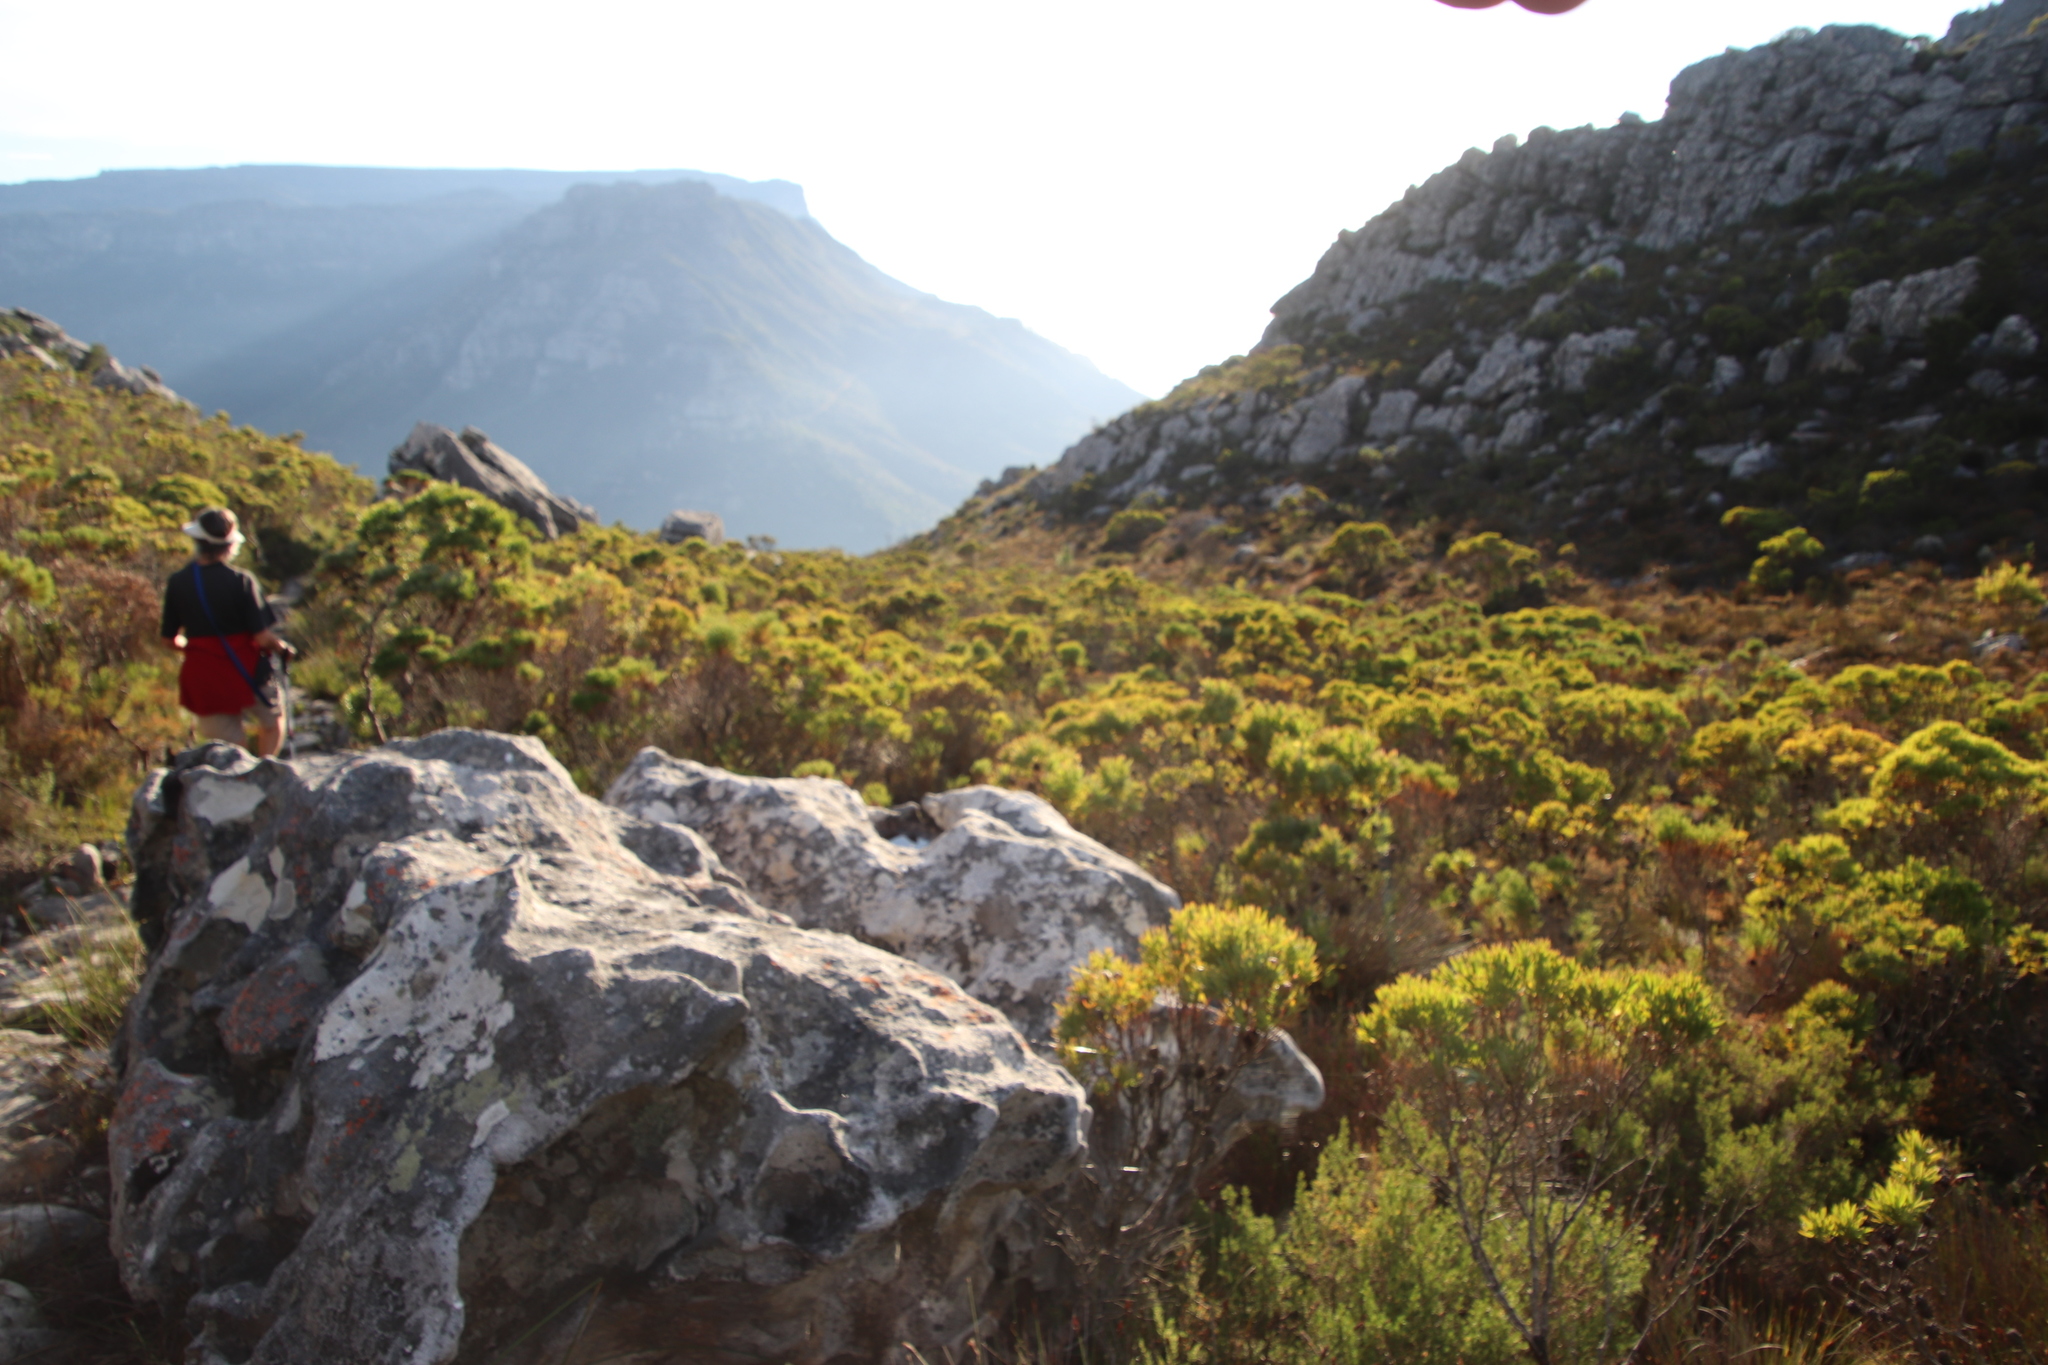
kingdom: Plantae
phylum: Tracheophyta
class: Magnoliopsida
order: Proteales
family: Proteaceae
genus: Leucadendron
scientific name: Leucadendron xanthoconus
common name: Sickle-leaf conebush
